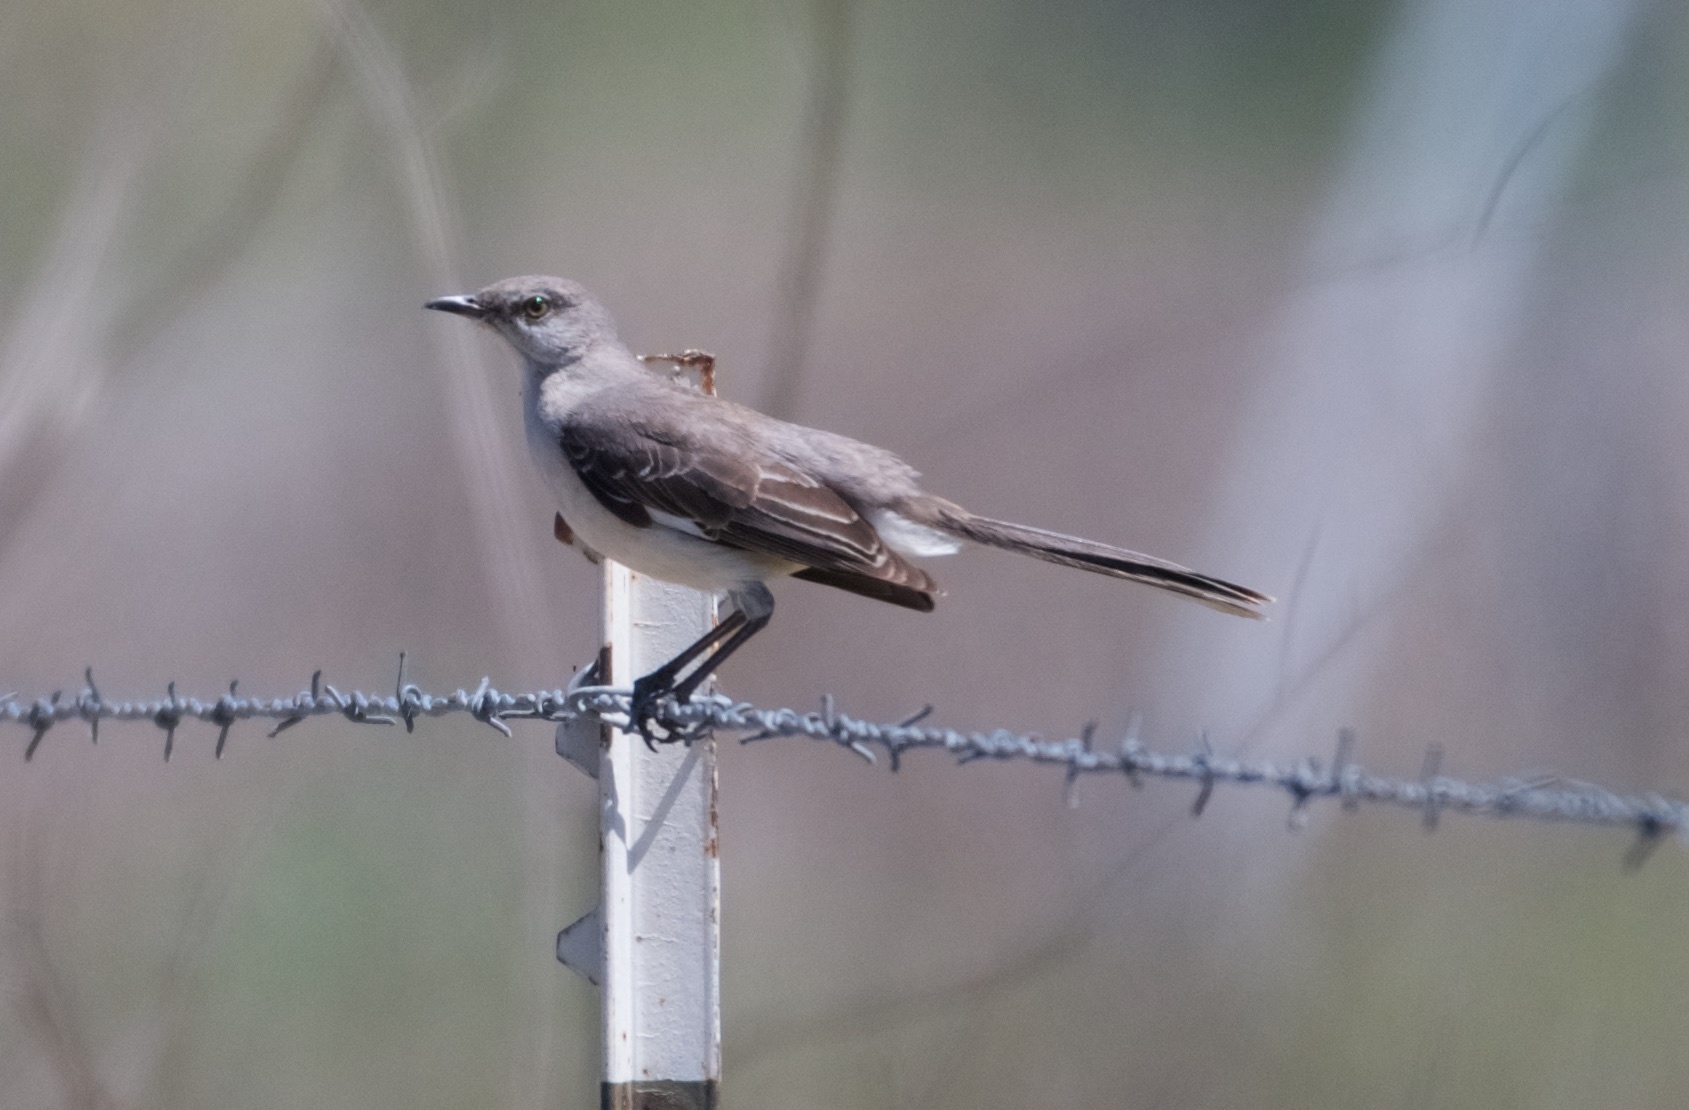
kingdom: Animalia
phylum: Chordata
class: Aves
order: Passeriformes
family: Mimidae
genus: Mimus
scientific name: Mimus polyglottos
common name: Northern mockingbird
